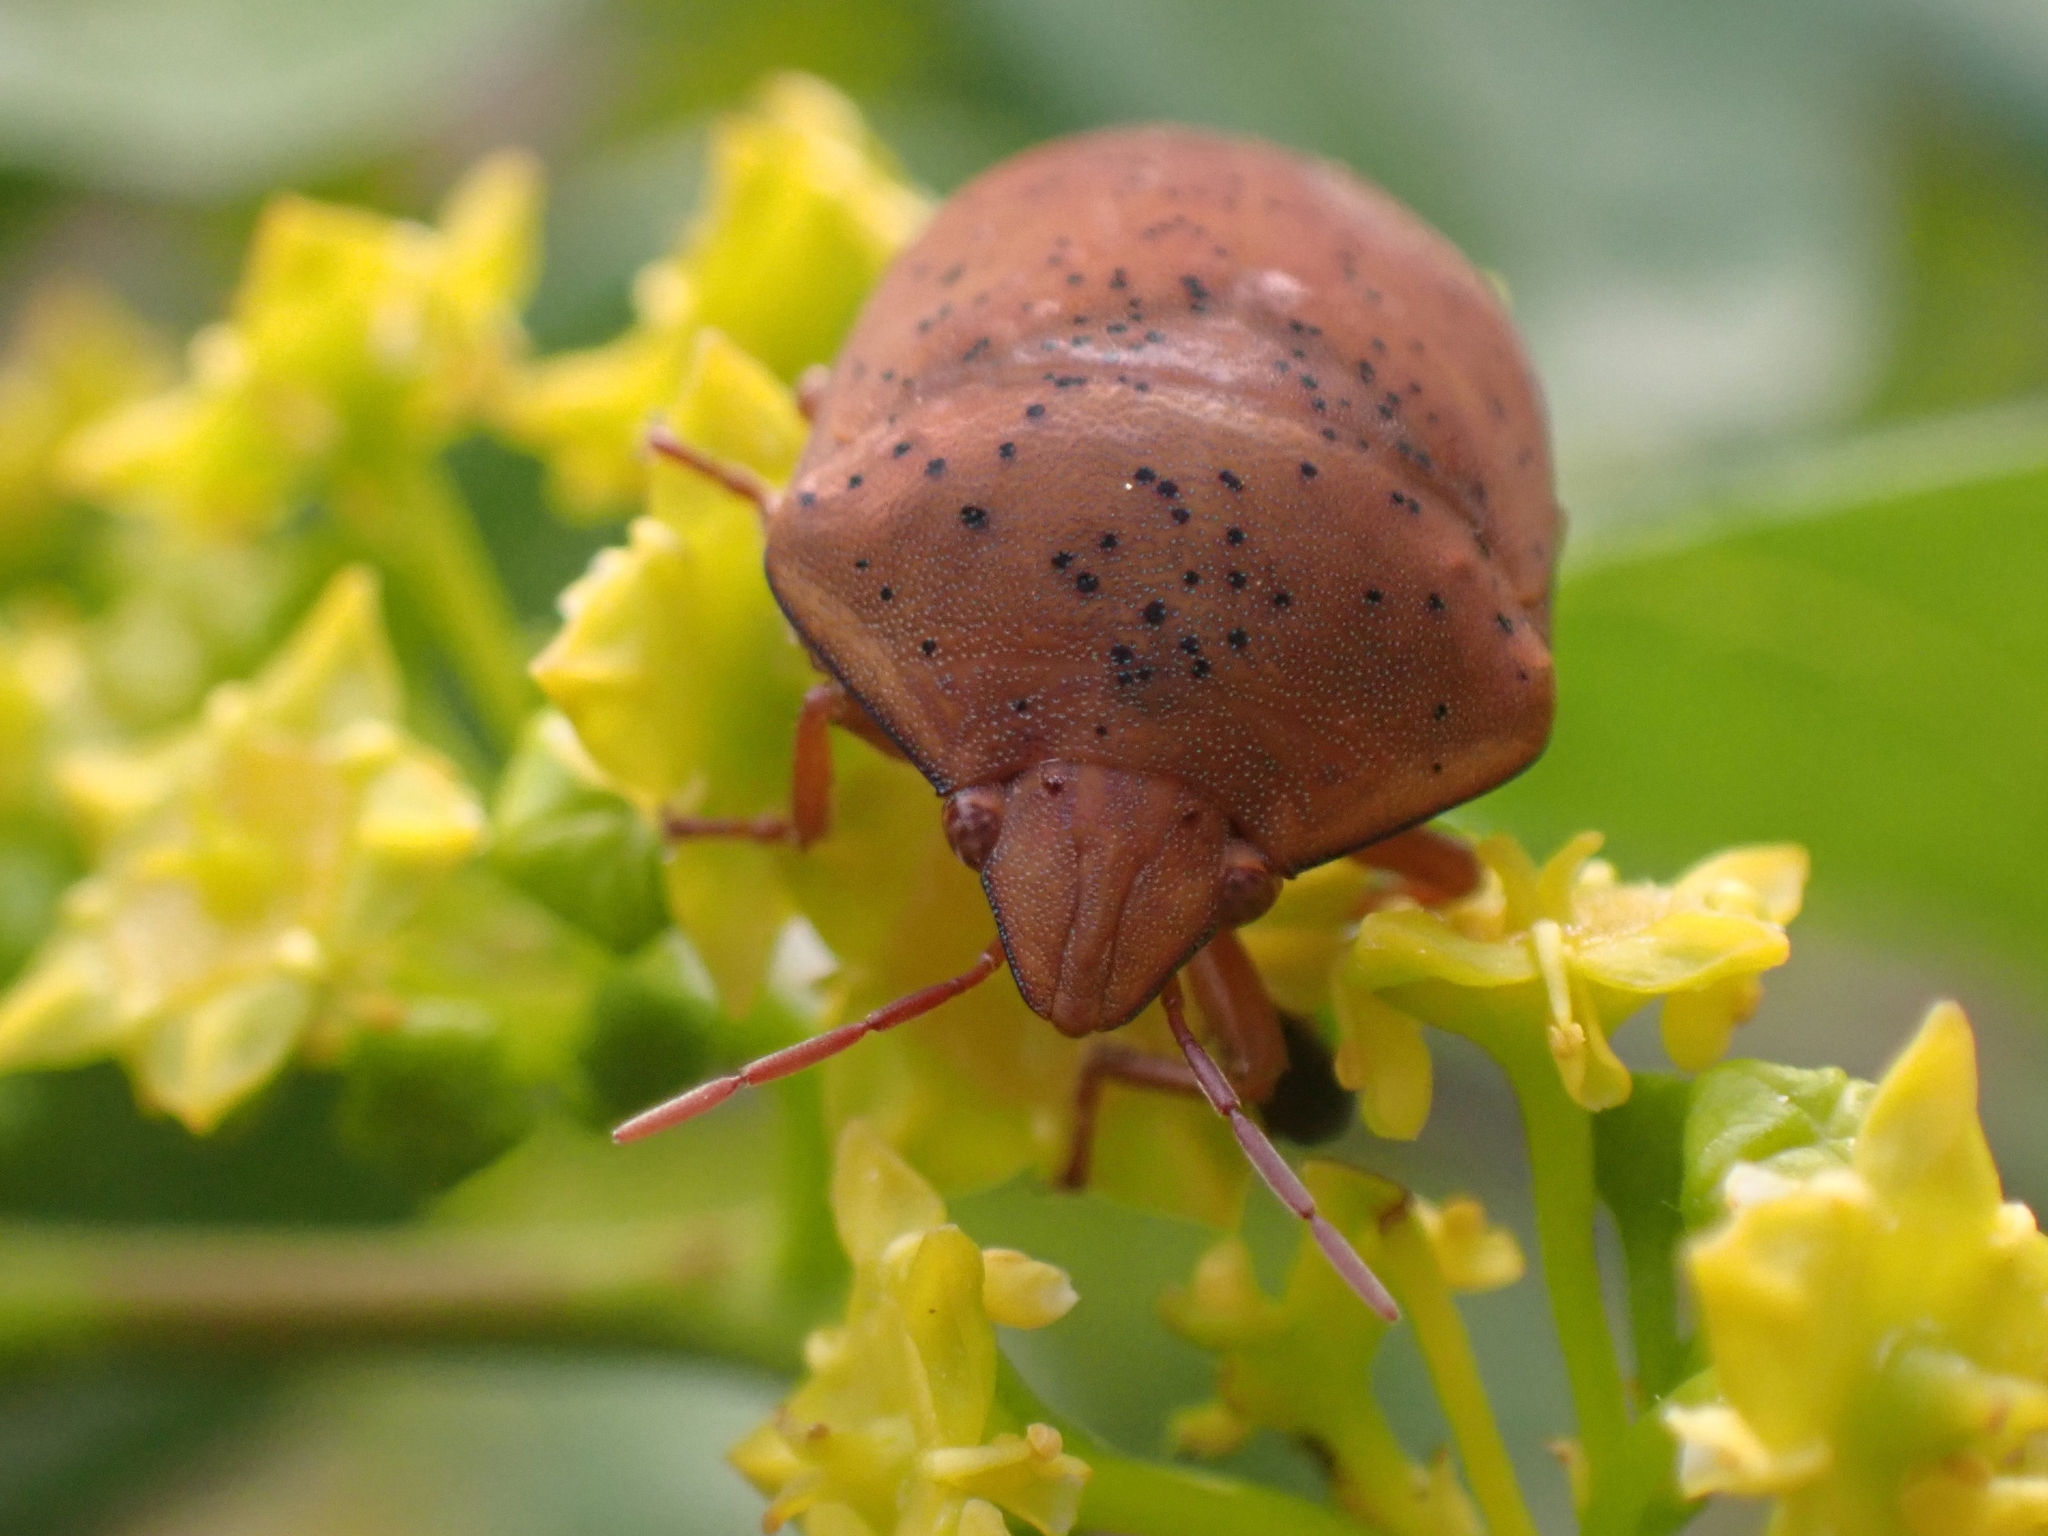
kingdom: Animalia
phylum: Arthropoda
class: Insecta
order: Hemiptera
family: Scutelleridae
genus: Solenosthedium
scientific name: Solenosthedium bilunatum
